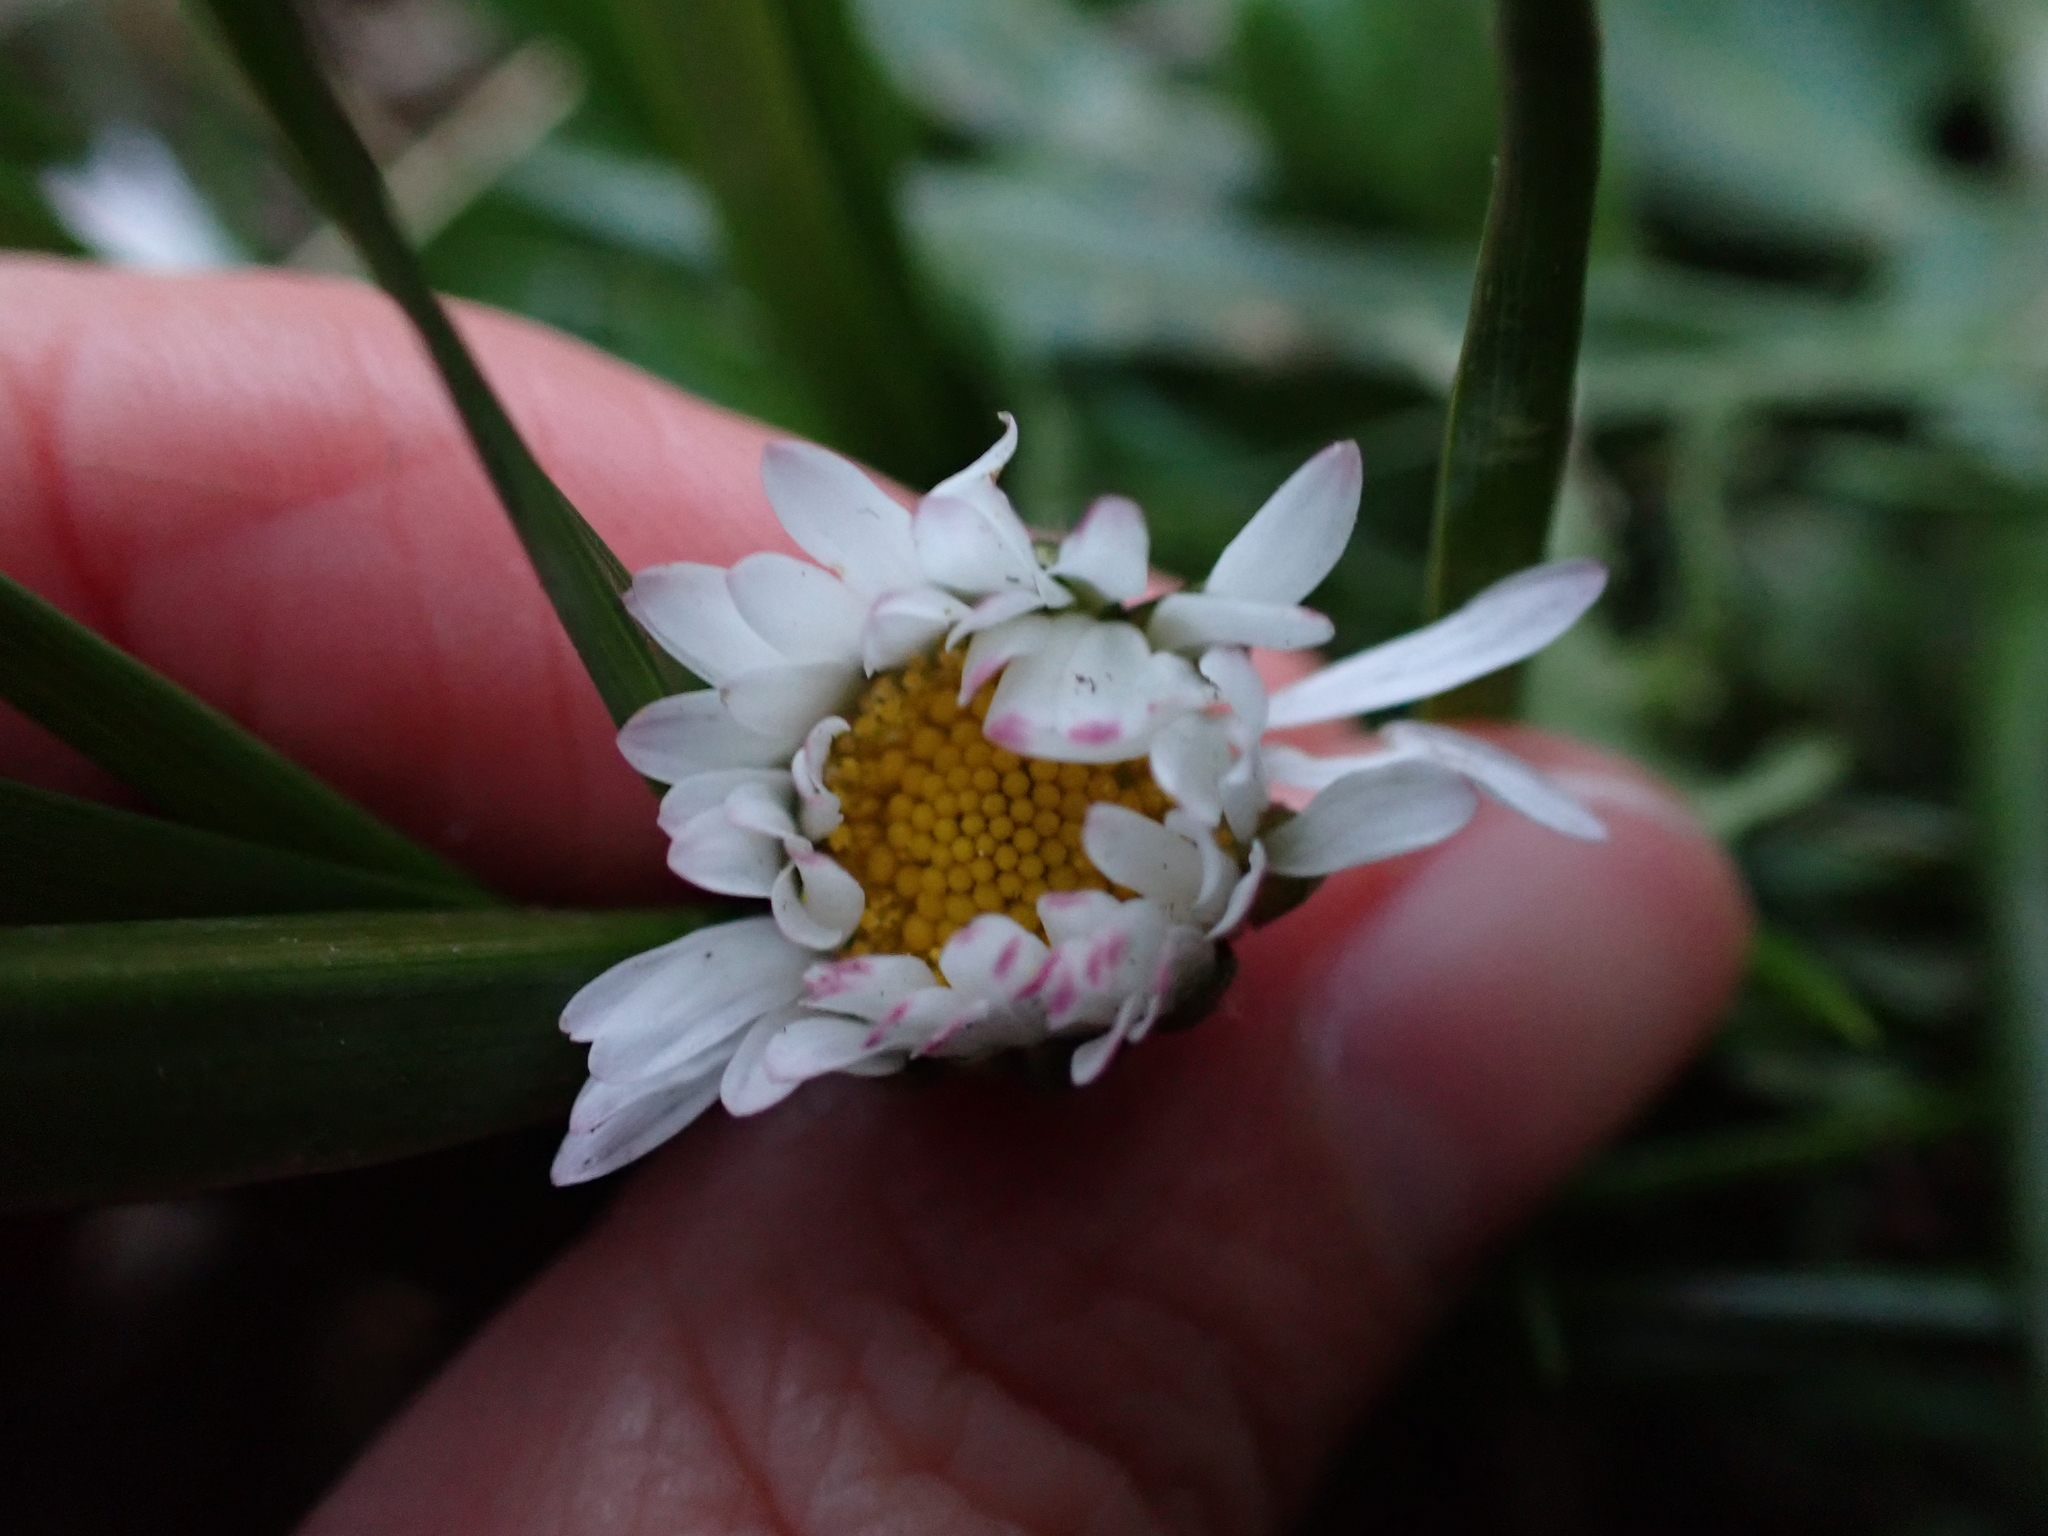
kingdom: Plantae
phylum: Tracheophyta
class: Magnoliopsida
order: Asterales
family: Asteraceae
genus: Bellis
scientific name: Bellis perennis
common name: Lawndaisy
